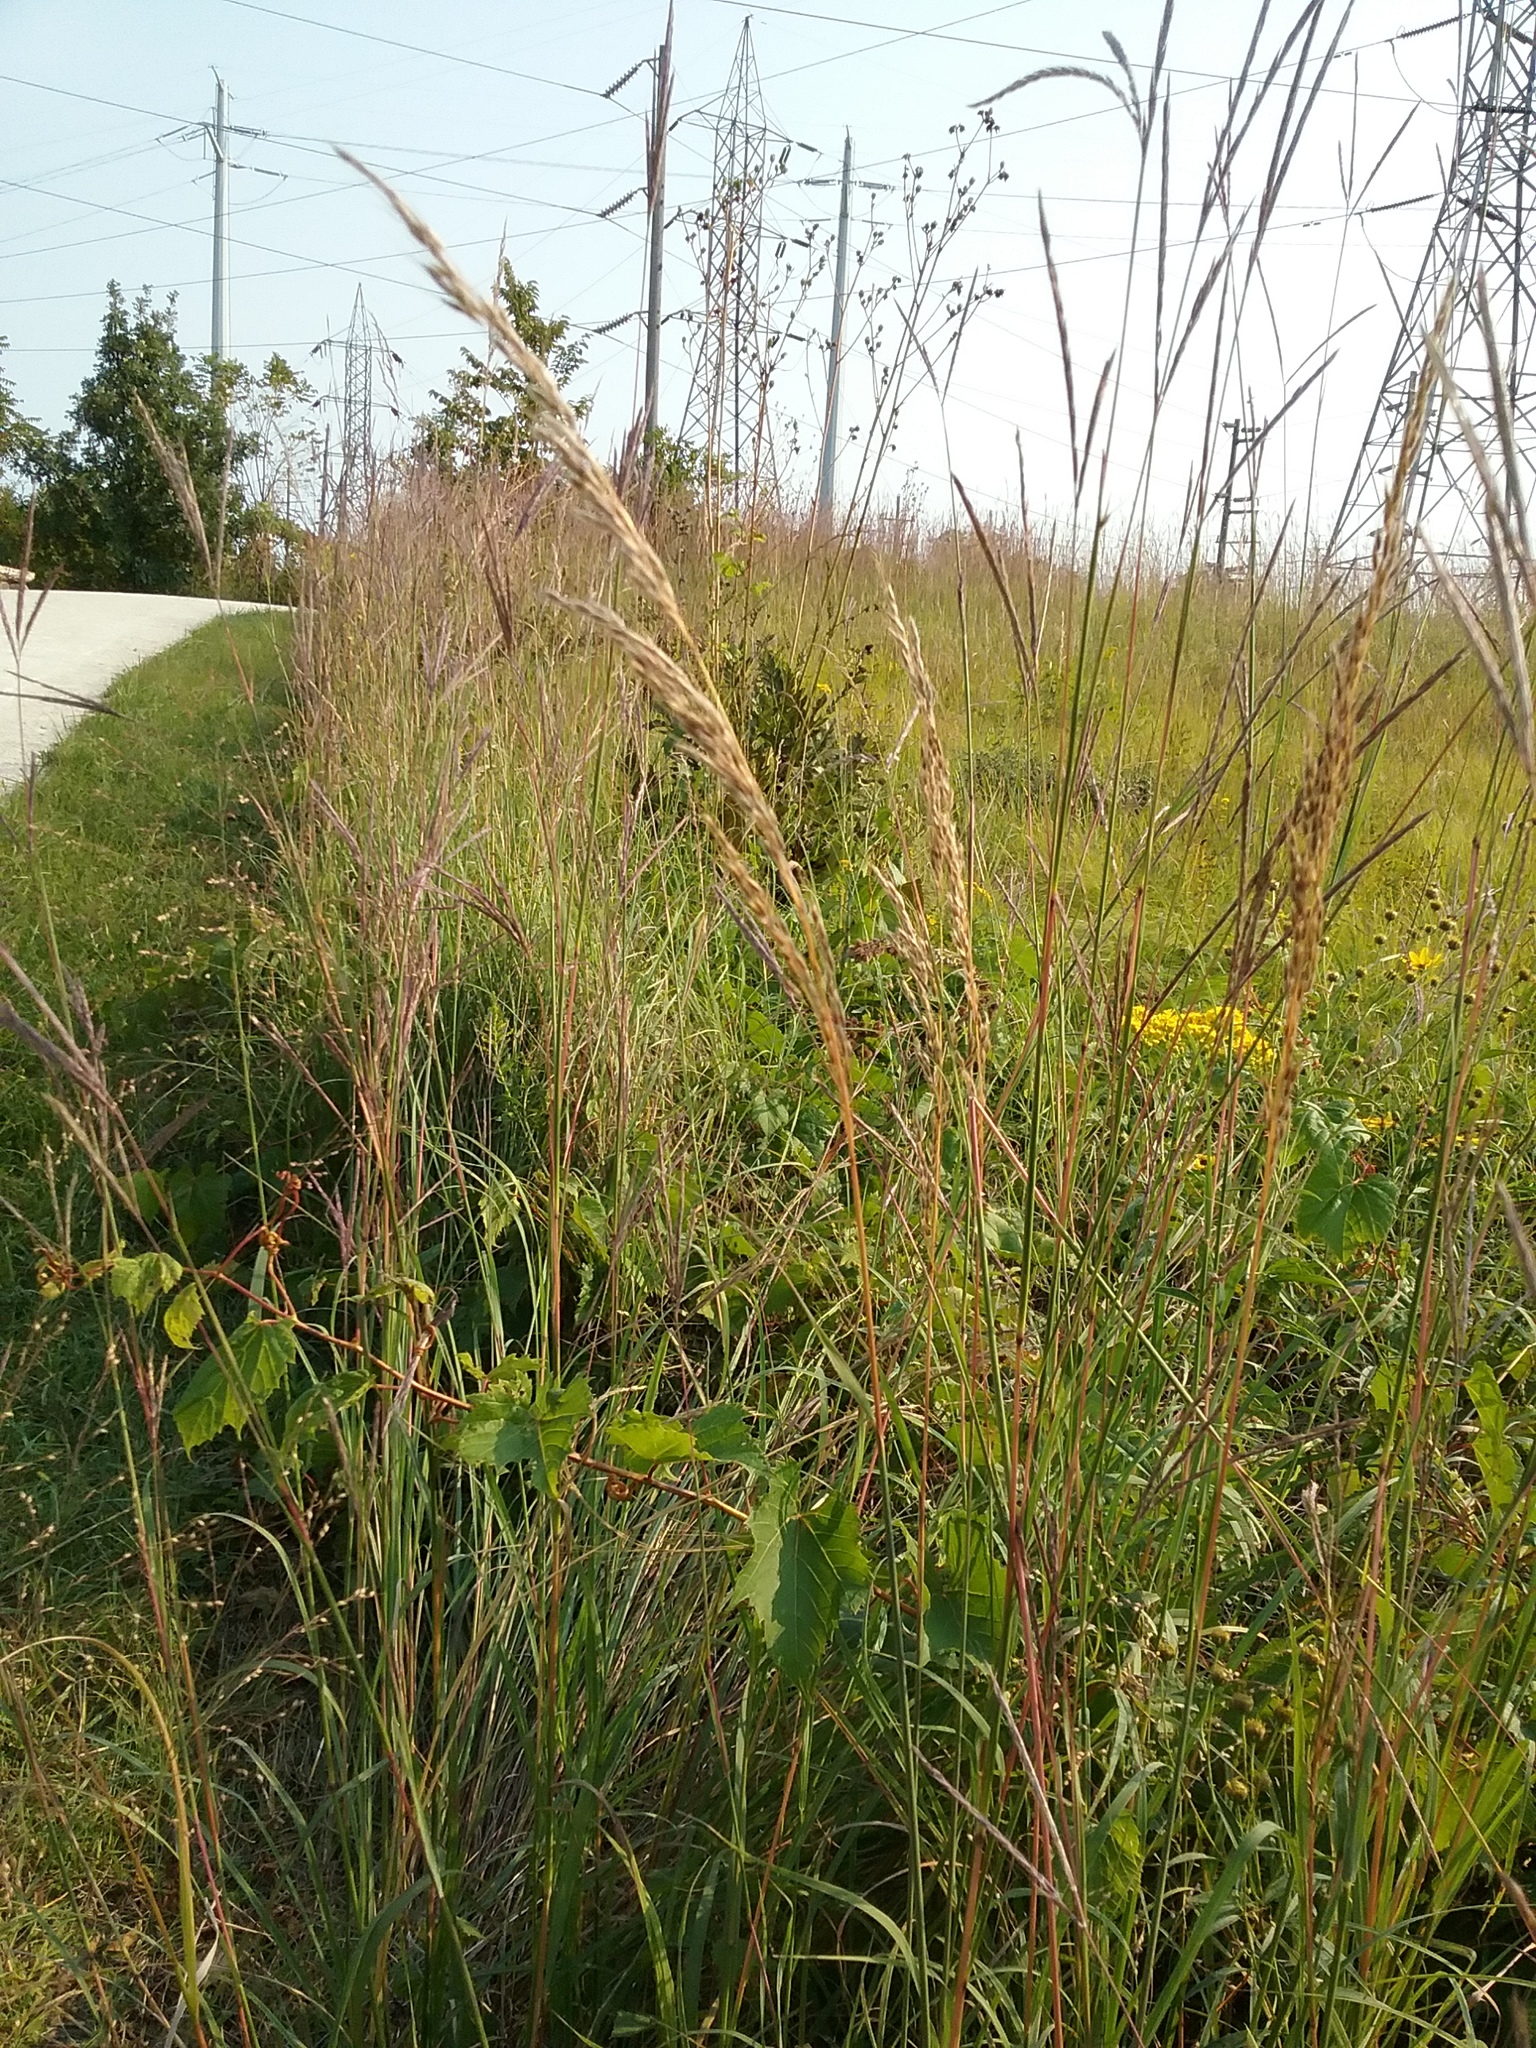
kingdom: Plantae
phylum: Tracheophyta
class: Liliopsida
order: Poales
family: Poaceae
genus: Sorghastrum
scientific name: Sorghastrum nutans
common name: Indian grass
